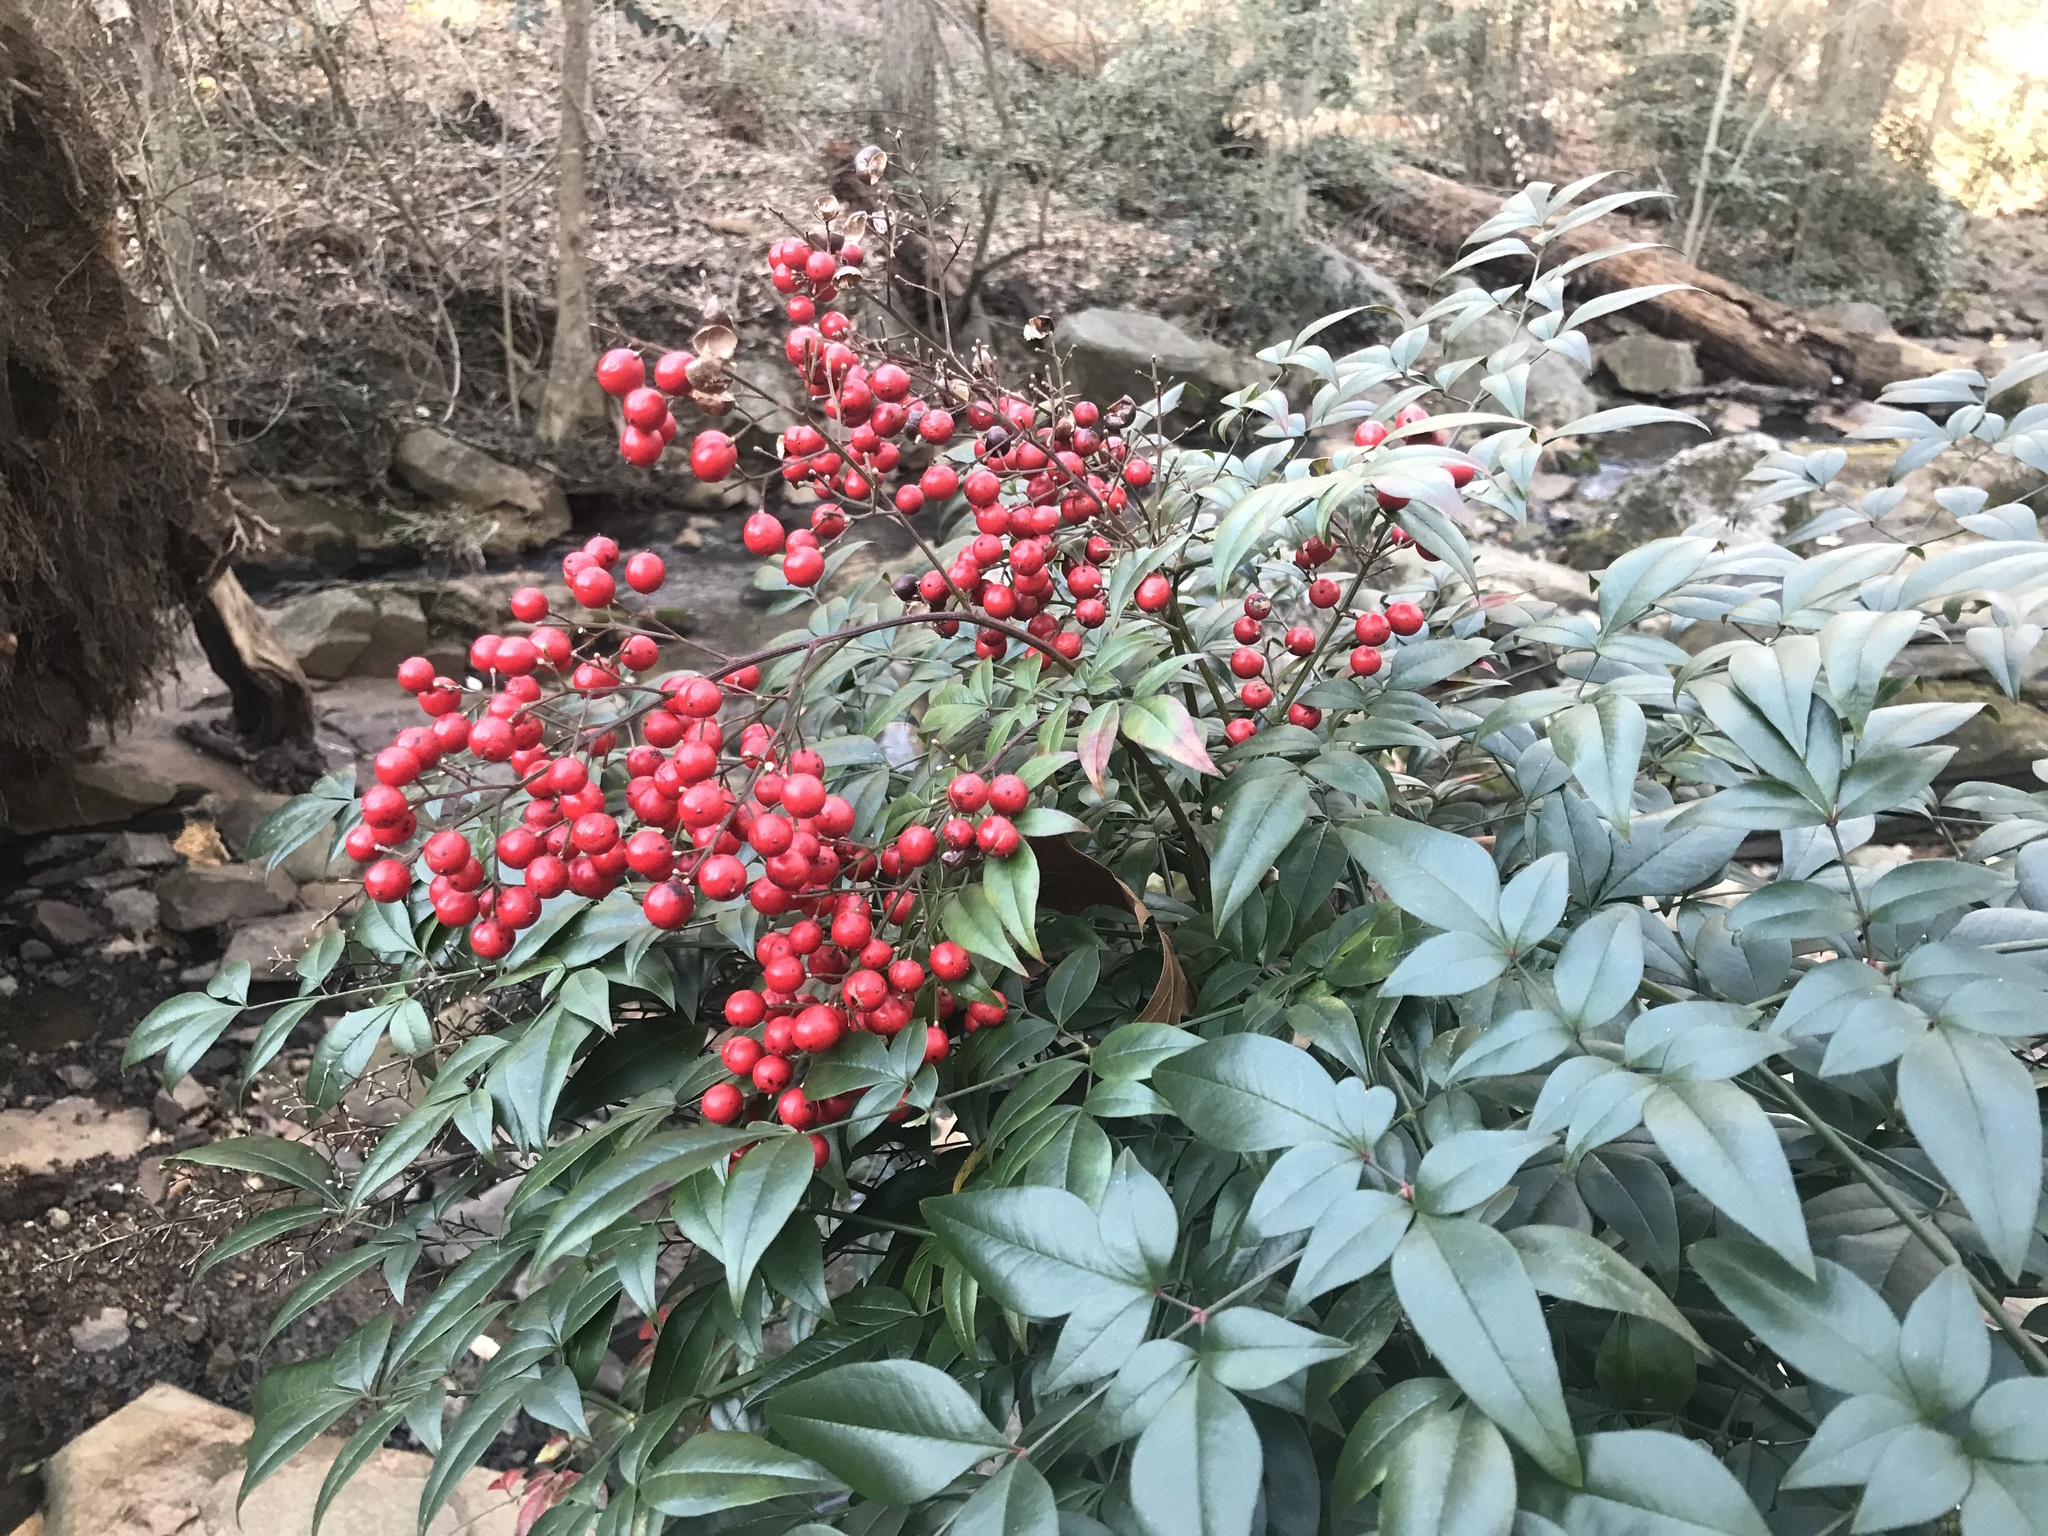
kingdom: Plantae
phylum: Tracheophyta
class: Magnoliopsida
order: Ranunculales
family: Berberidaceae
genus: Nandina
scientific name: Nandina domestica
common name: Sacred bamboo
